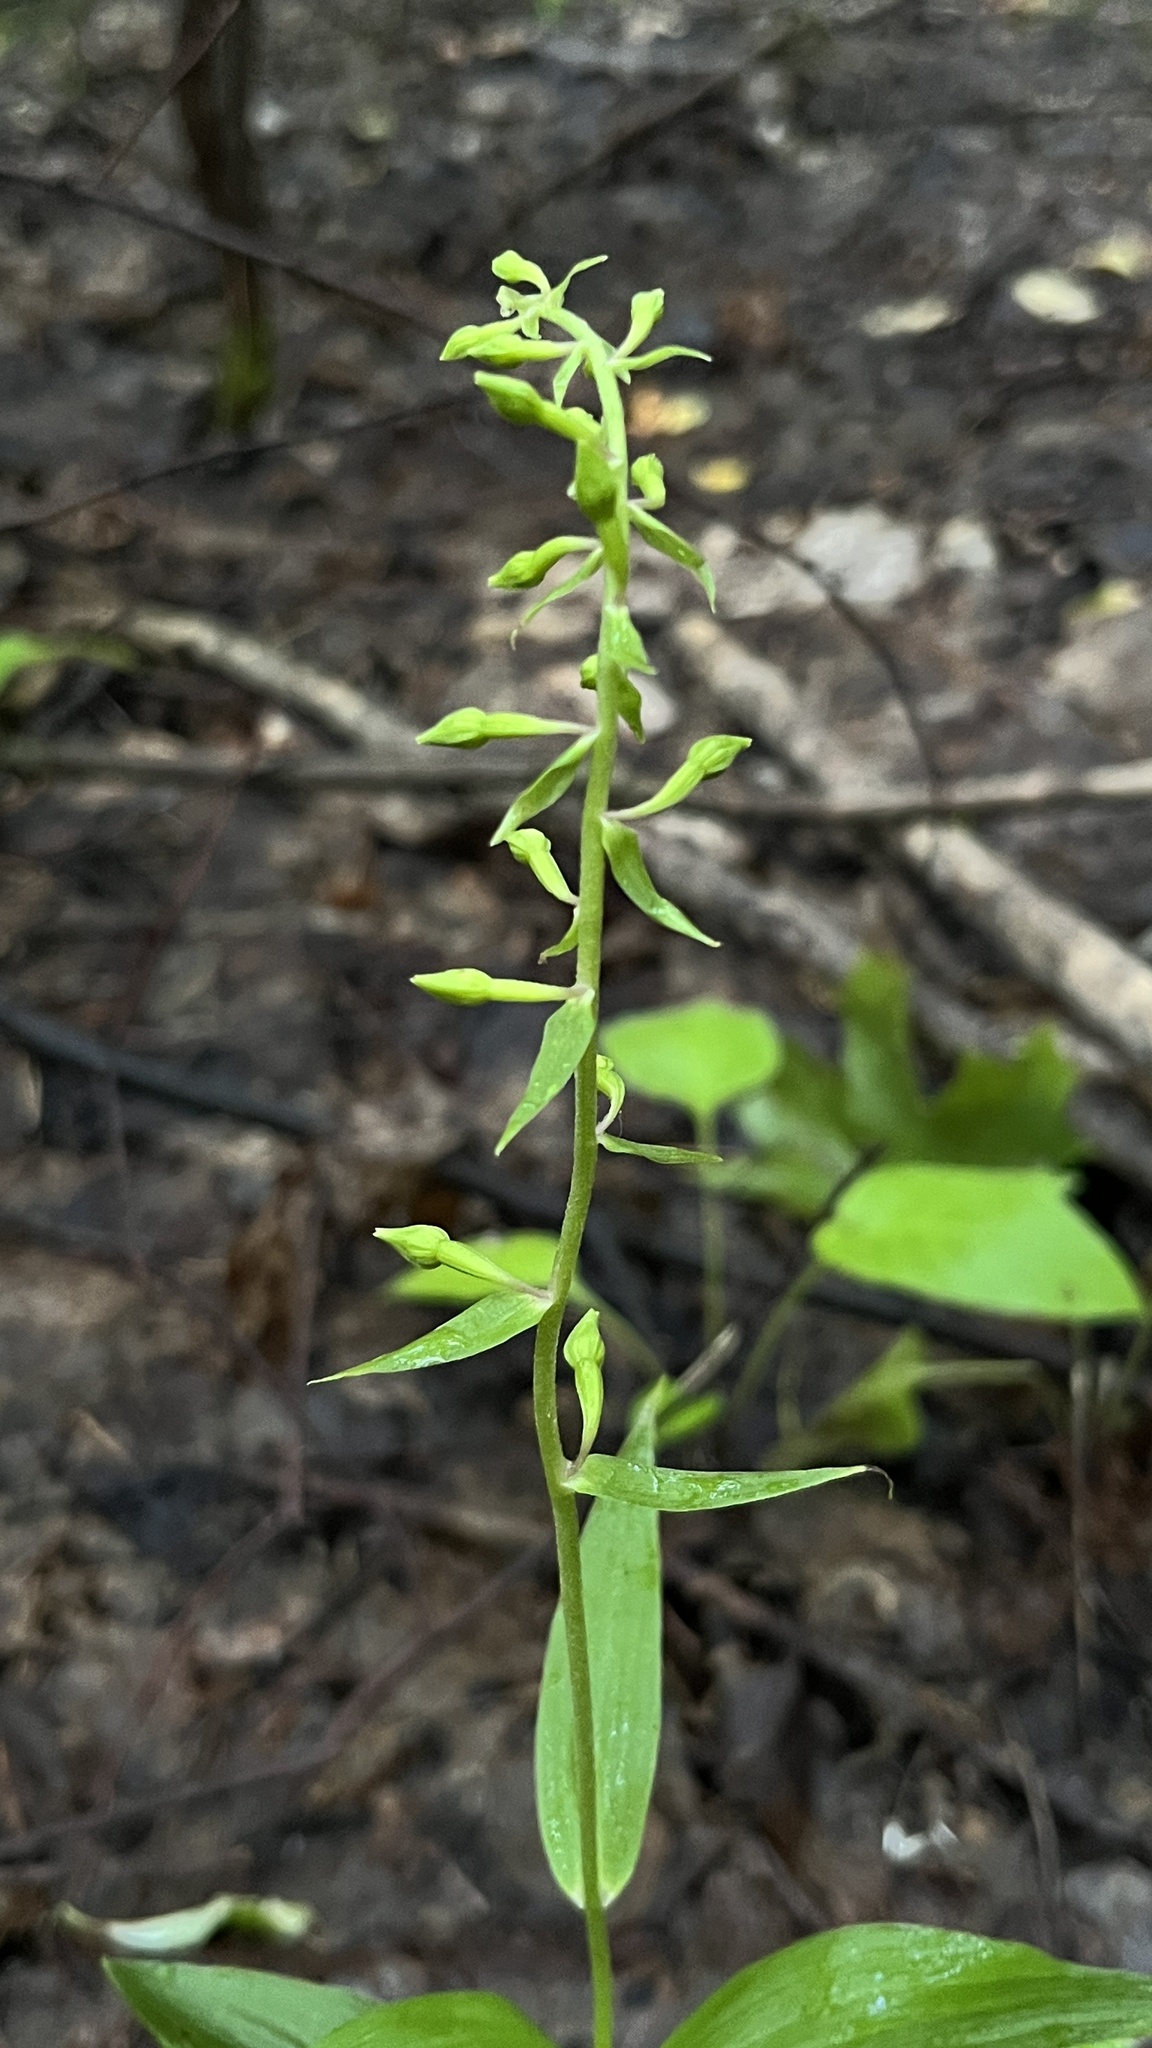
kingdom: Plantae
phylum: Tracheophyta
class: Liliopsida
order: Asparagales
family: Orchidaceae
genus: Epipactis
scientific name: Epipactis helleborine
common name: Broad-leaved helleborine
